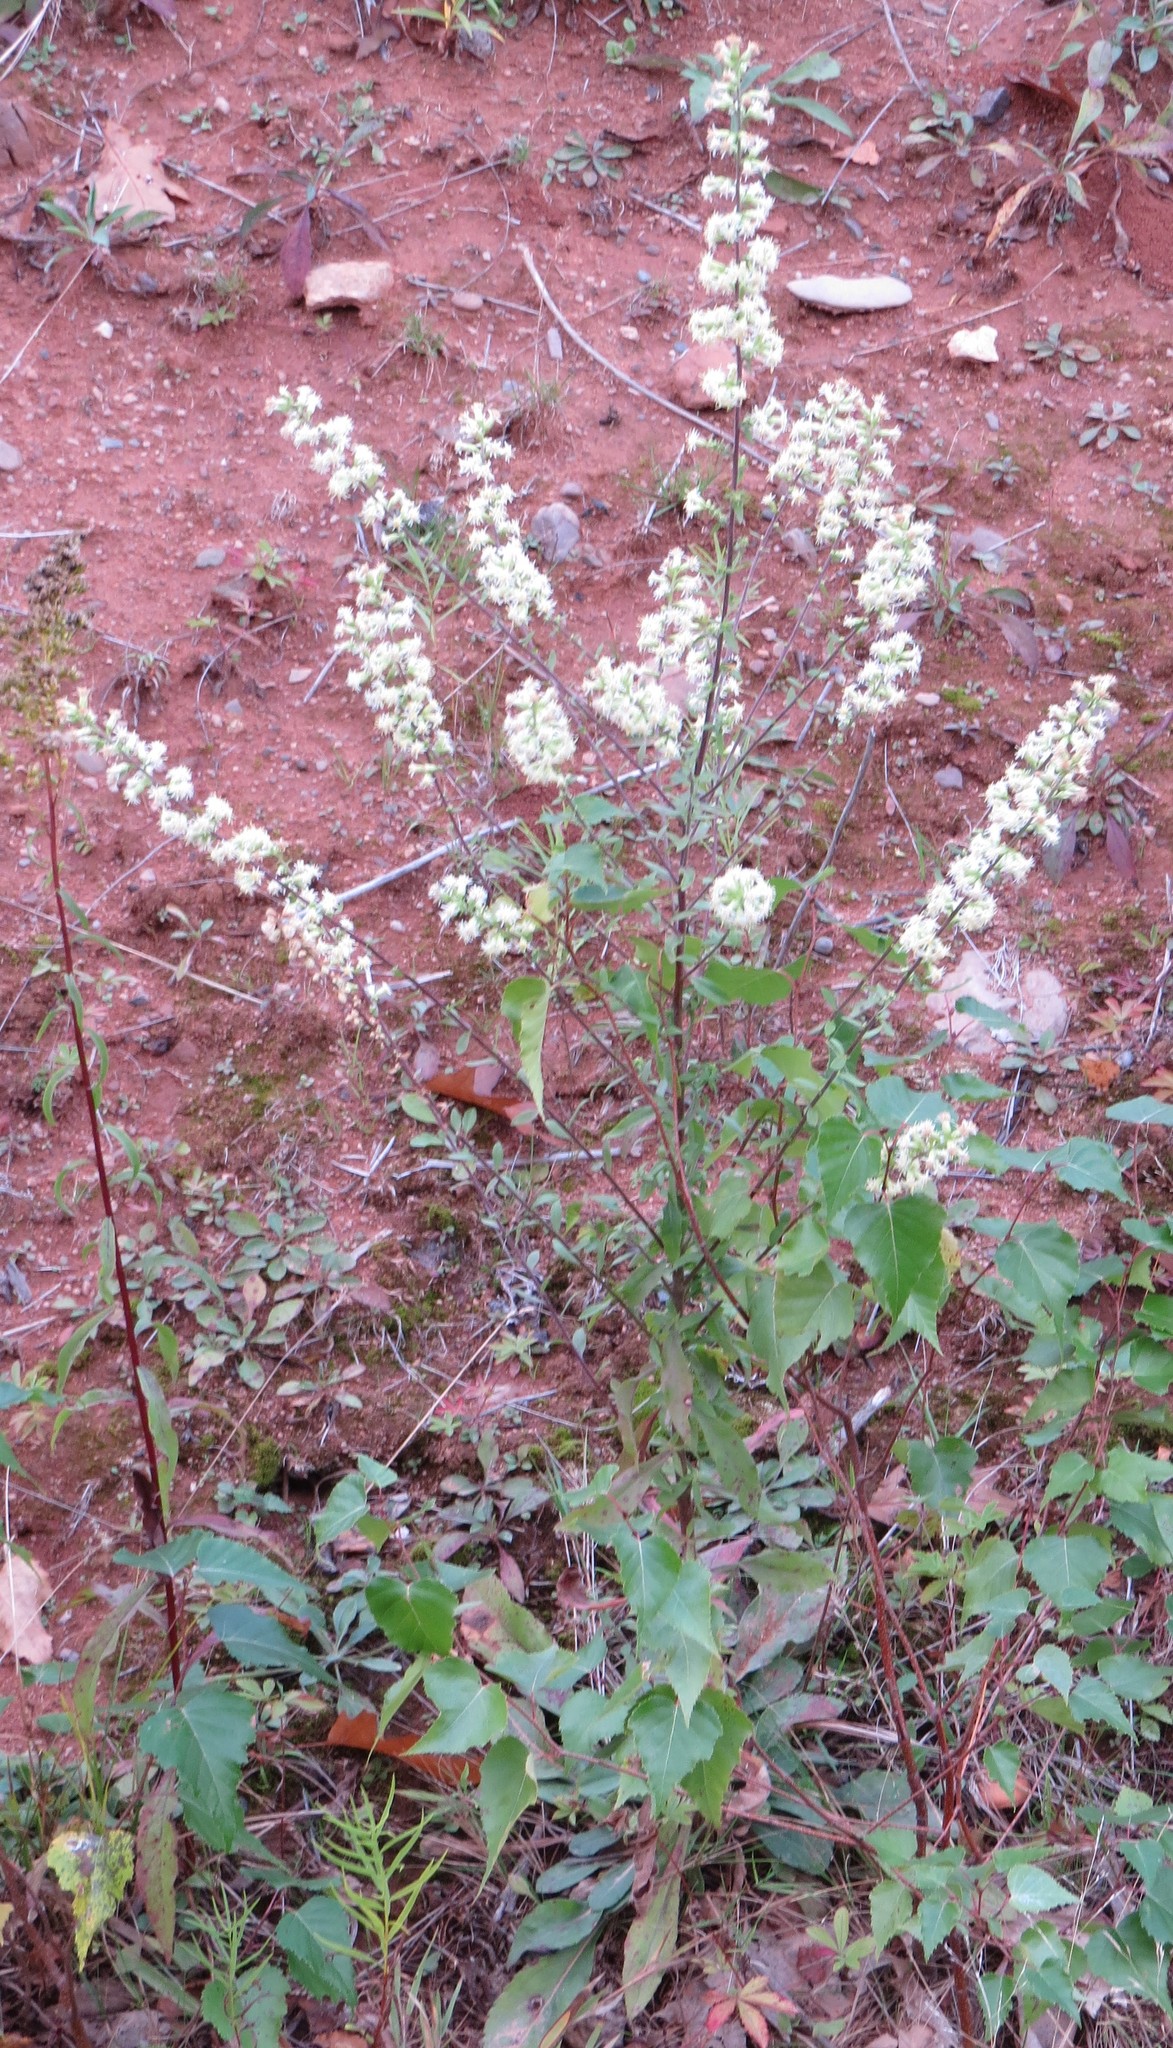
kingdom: Plantae
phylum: Tracheophyta
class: Magnoliopsida
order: Asterales
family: Asteraceae
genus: Solidago
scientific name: Solidago bicolor
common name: Silverrod
